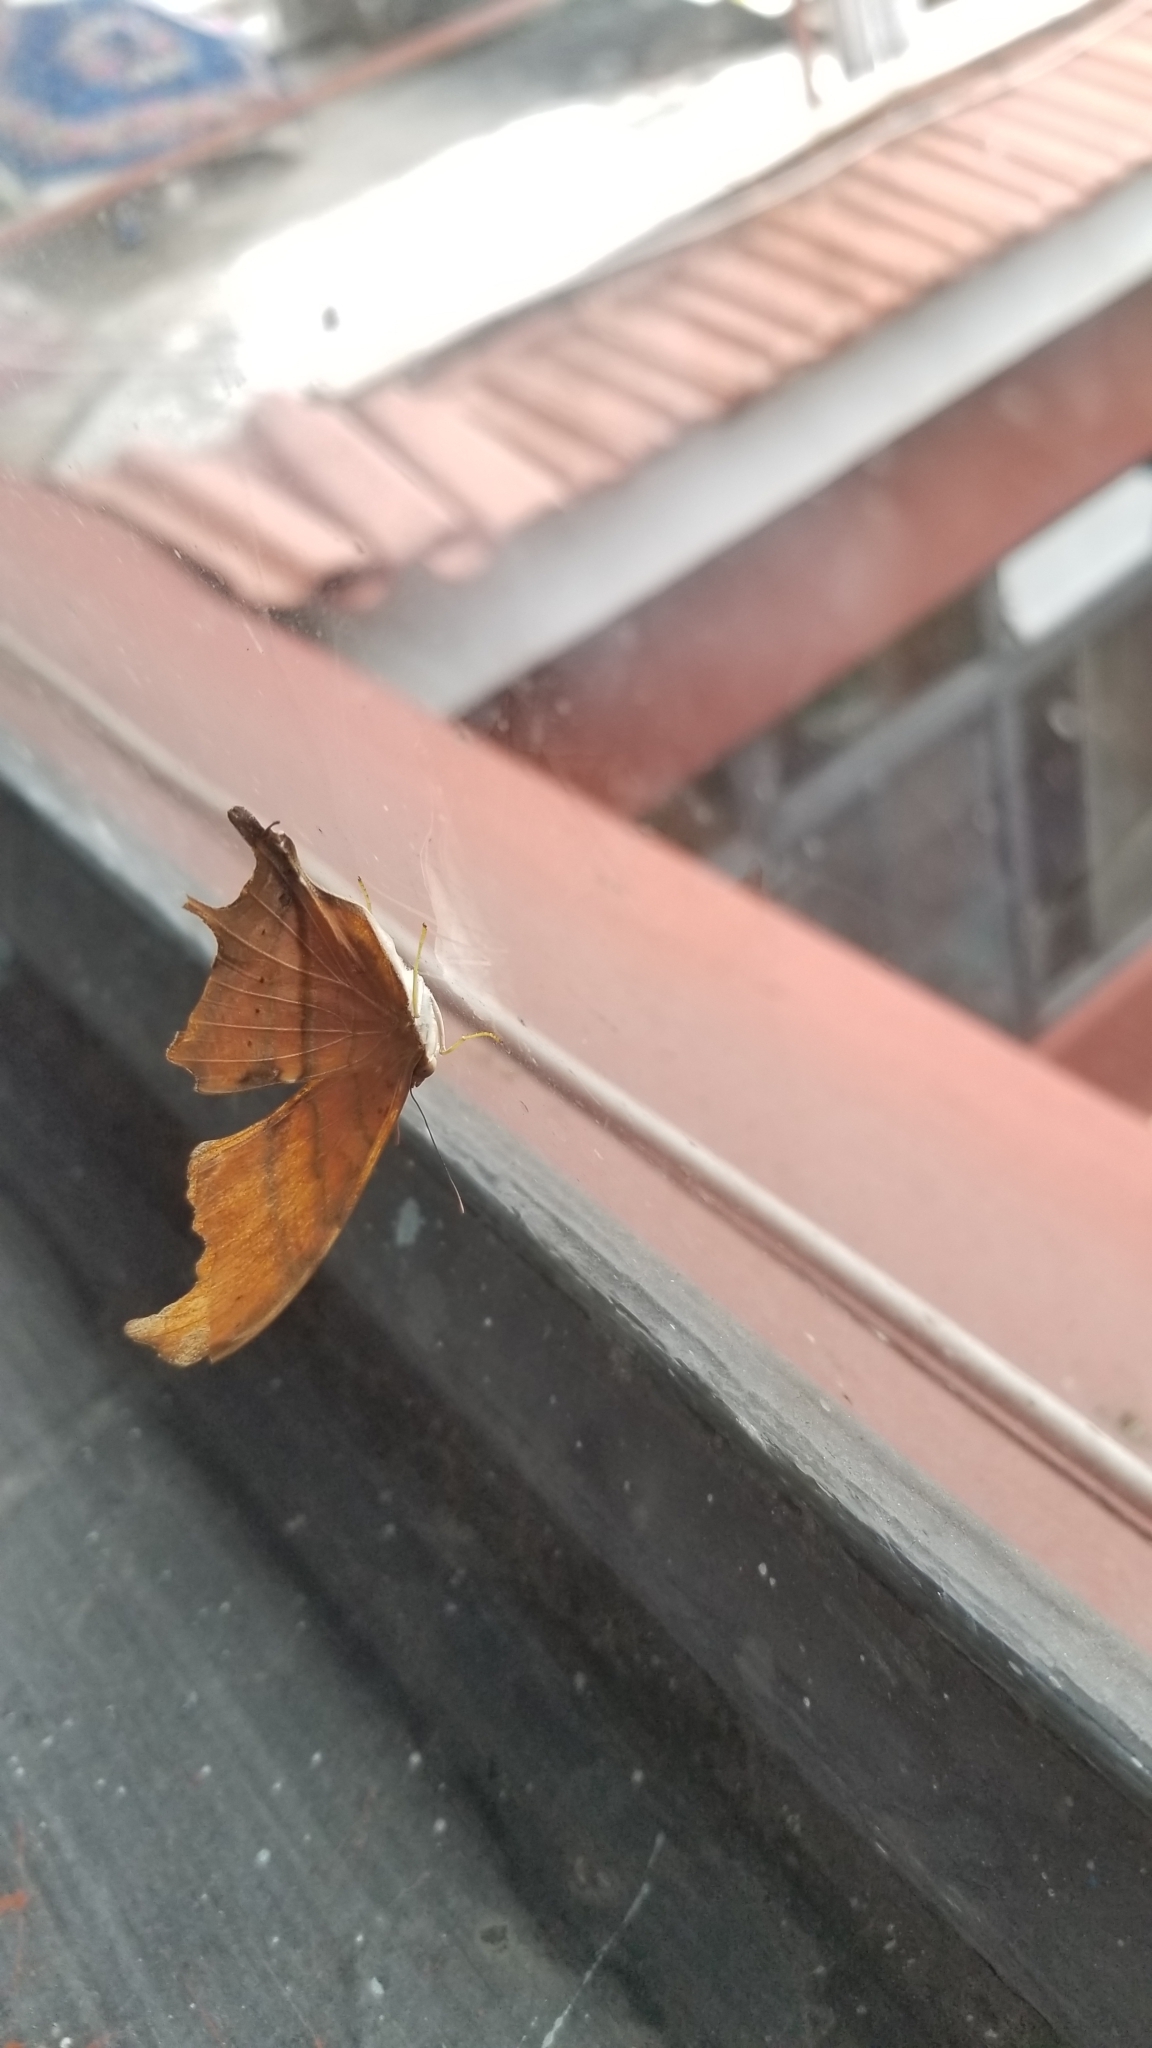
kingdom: Animalia
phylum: Arthropoda
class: Insecta
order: Lepidoptera
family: Nymphalidae
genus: Marpesia
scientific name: Marpesia petreus
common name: Red dagger wing
